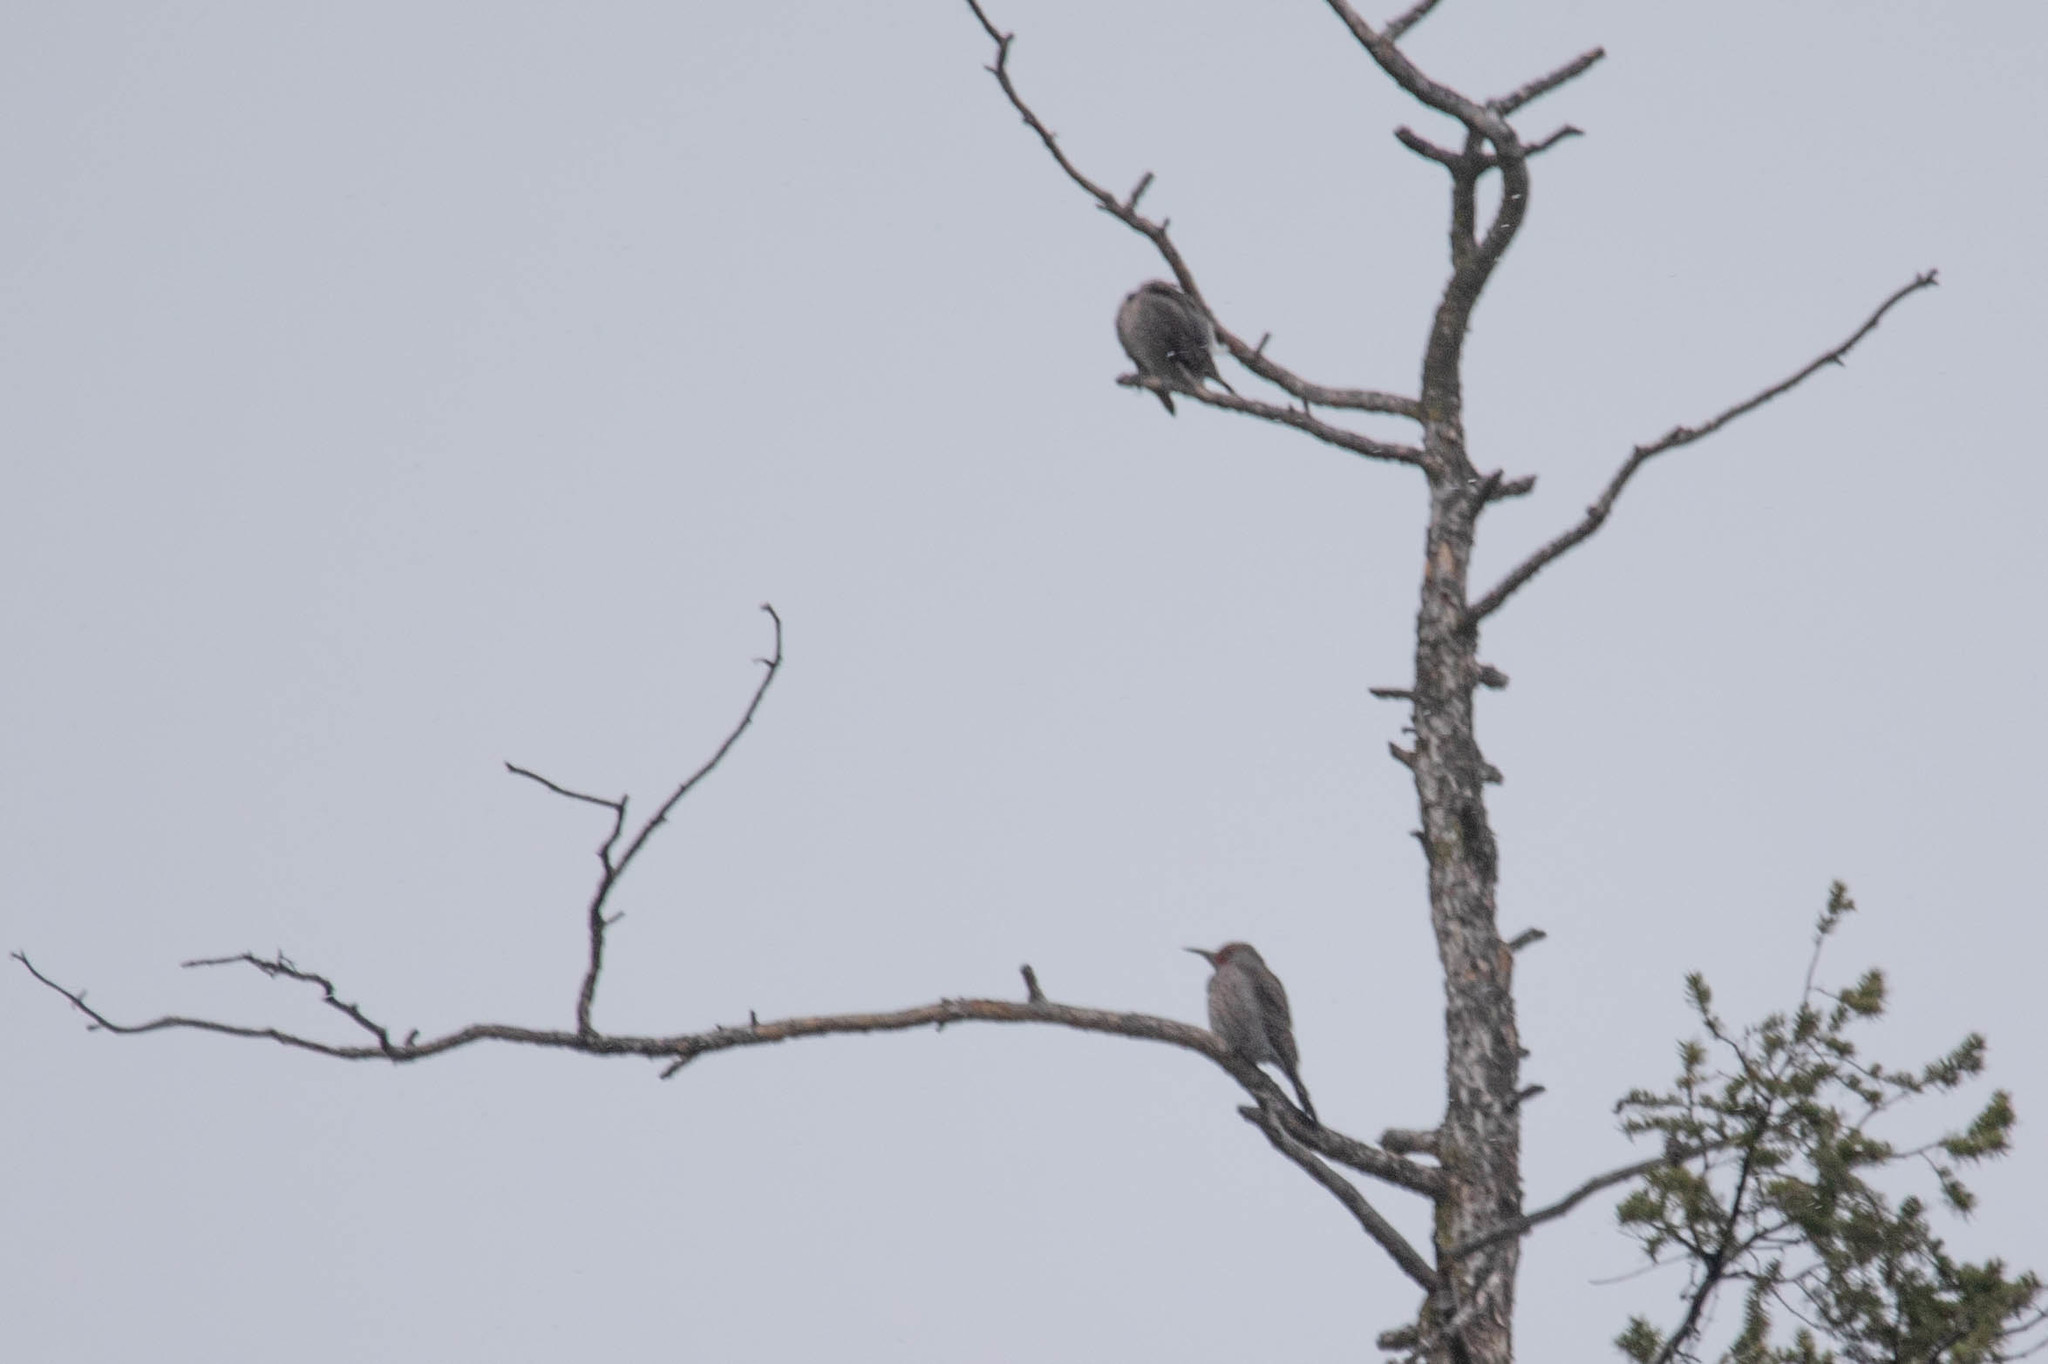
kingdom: Animalia
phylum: Chordata
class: Aves
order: Piciformes
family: Picidae
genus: Colaptes
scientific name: Colaptes auratus
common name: Northern flicker
